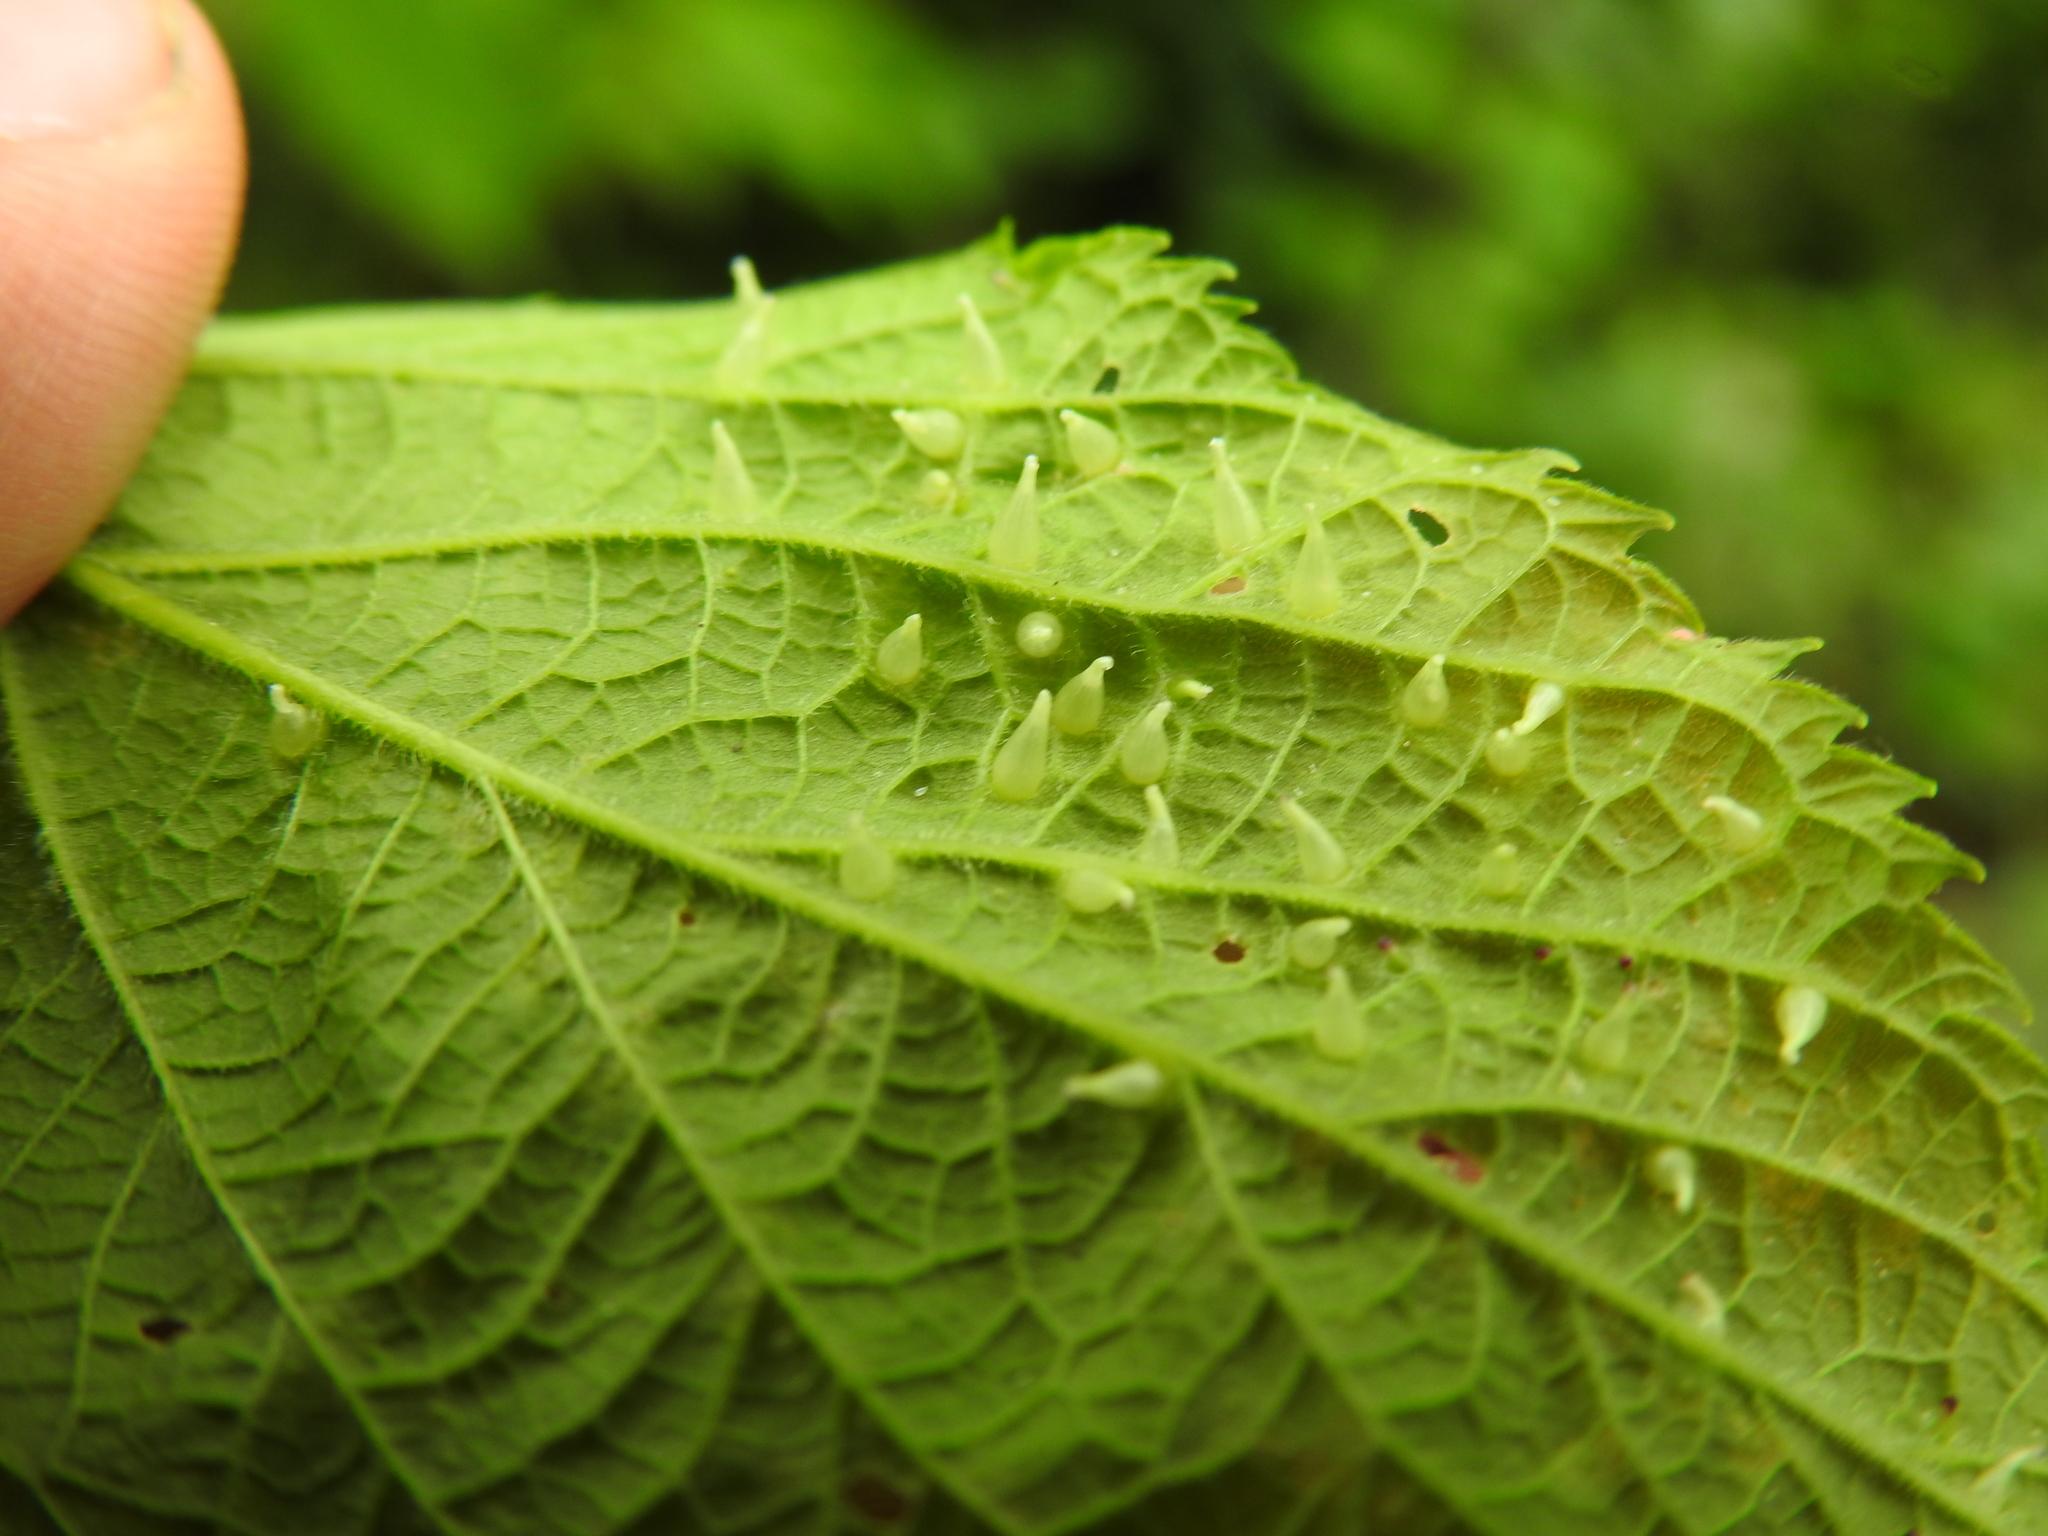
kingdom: Animalia
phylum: Arthropoda
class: Insecta
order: Diptera
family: Cecidomyiidae
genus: Celticecis
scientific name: Celticecis conica
